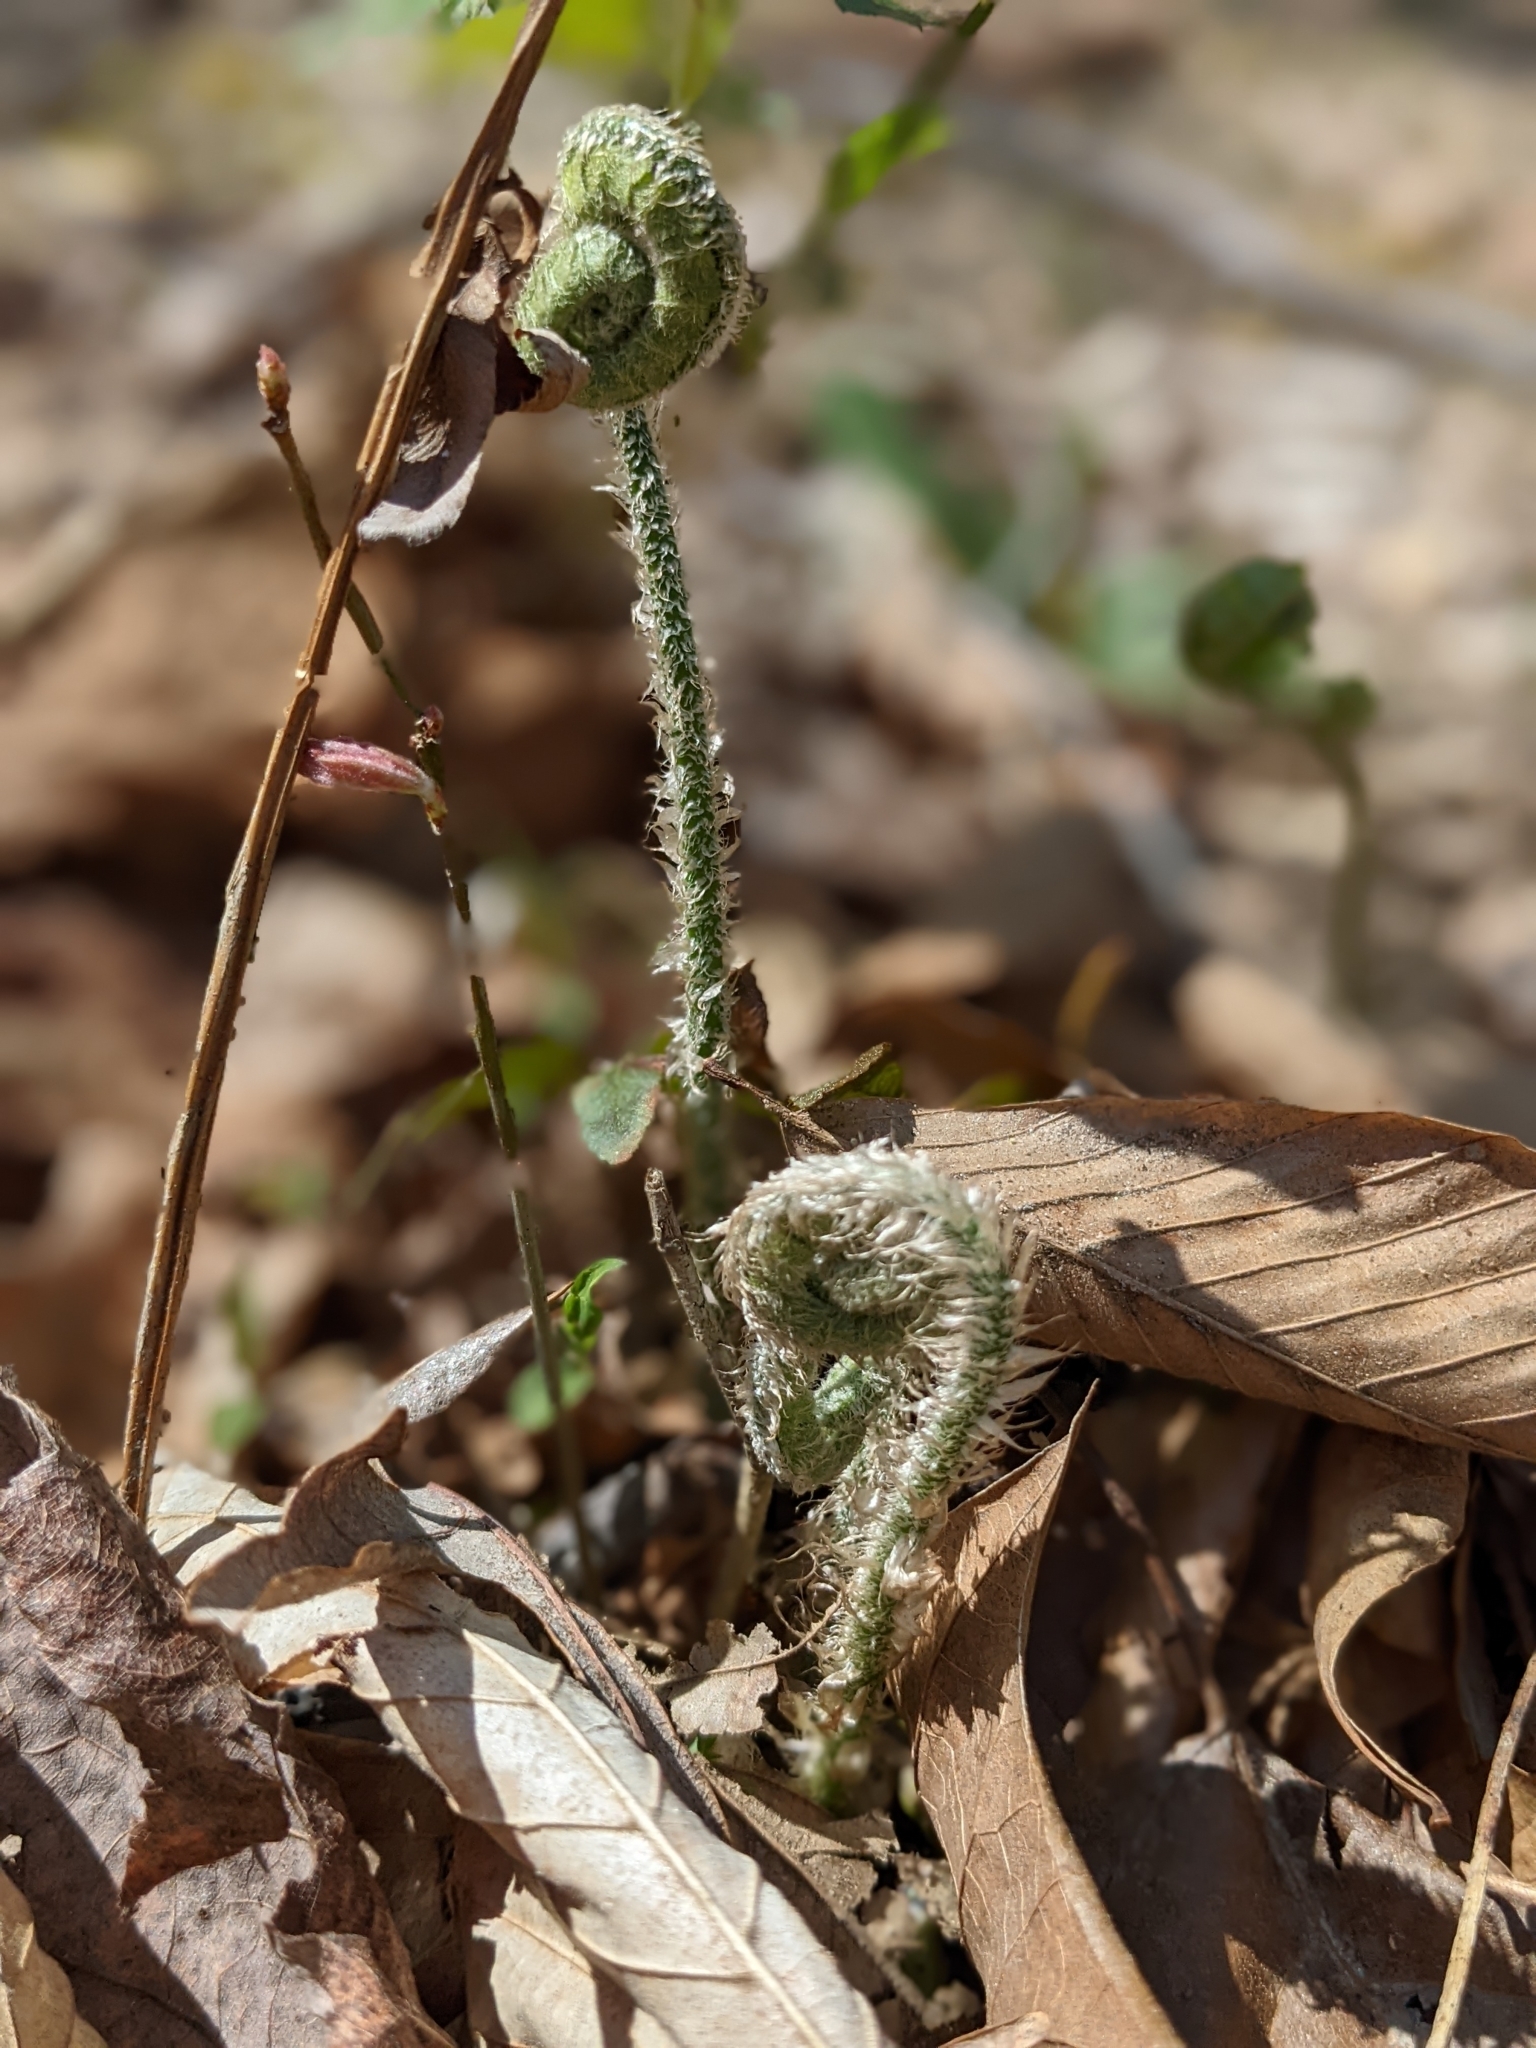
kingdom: Plantae
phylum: Tracheophyta
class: Polypodiopsida
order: Polypodiales
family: Dryopteridaceae
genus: Polystichum
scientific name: Polystichum acrostichoides
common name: Christmas fern
